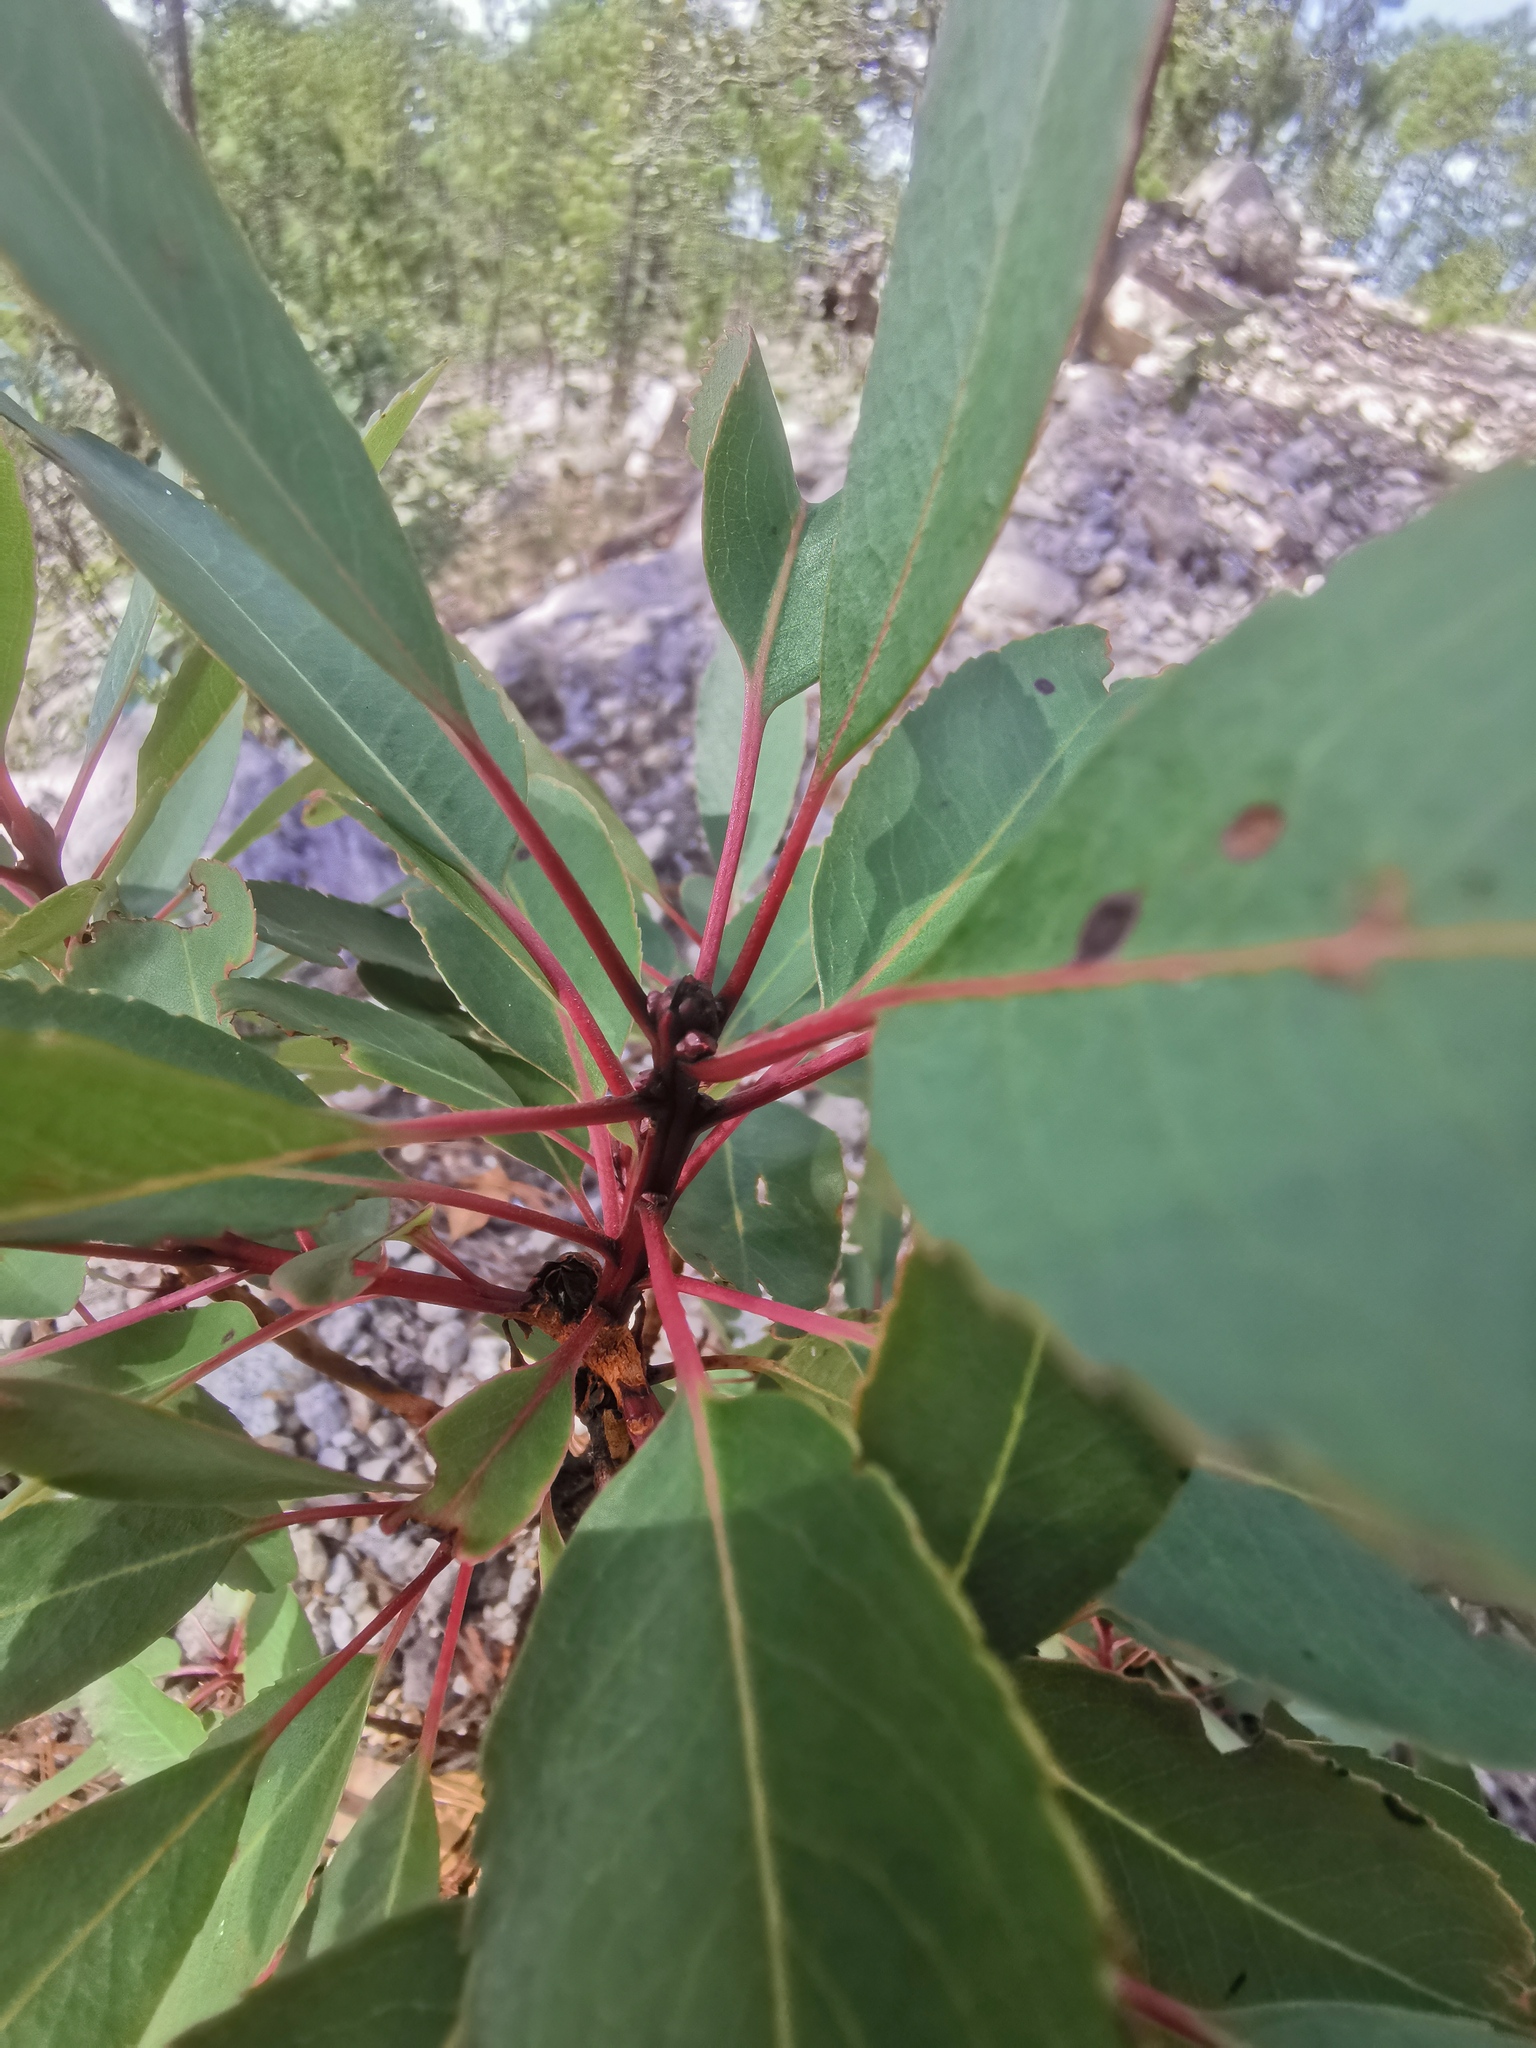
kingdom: Plantae
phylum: Tracheophyta
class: Magnoliopsida
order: Ericales
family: Ericaceae
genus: Arbutus
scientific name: Arbutus arizonica
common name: Arizona madrone
